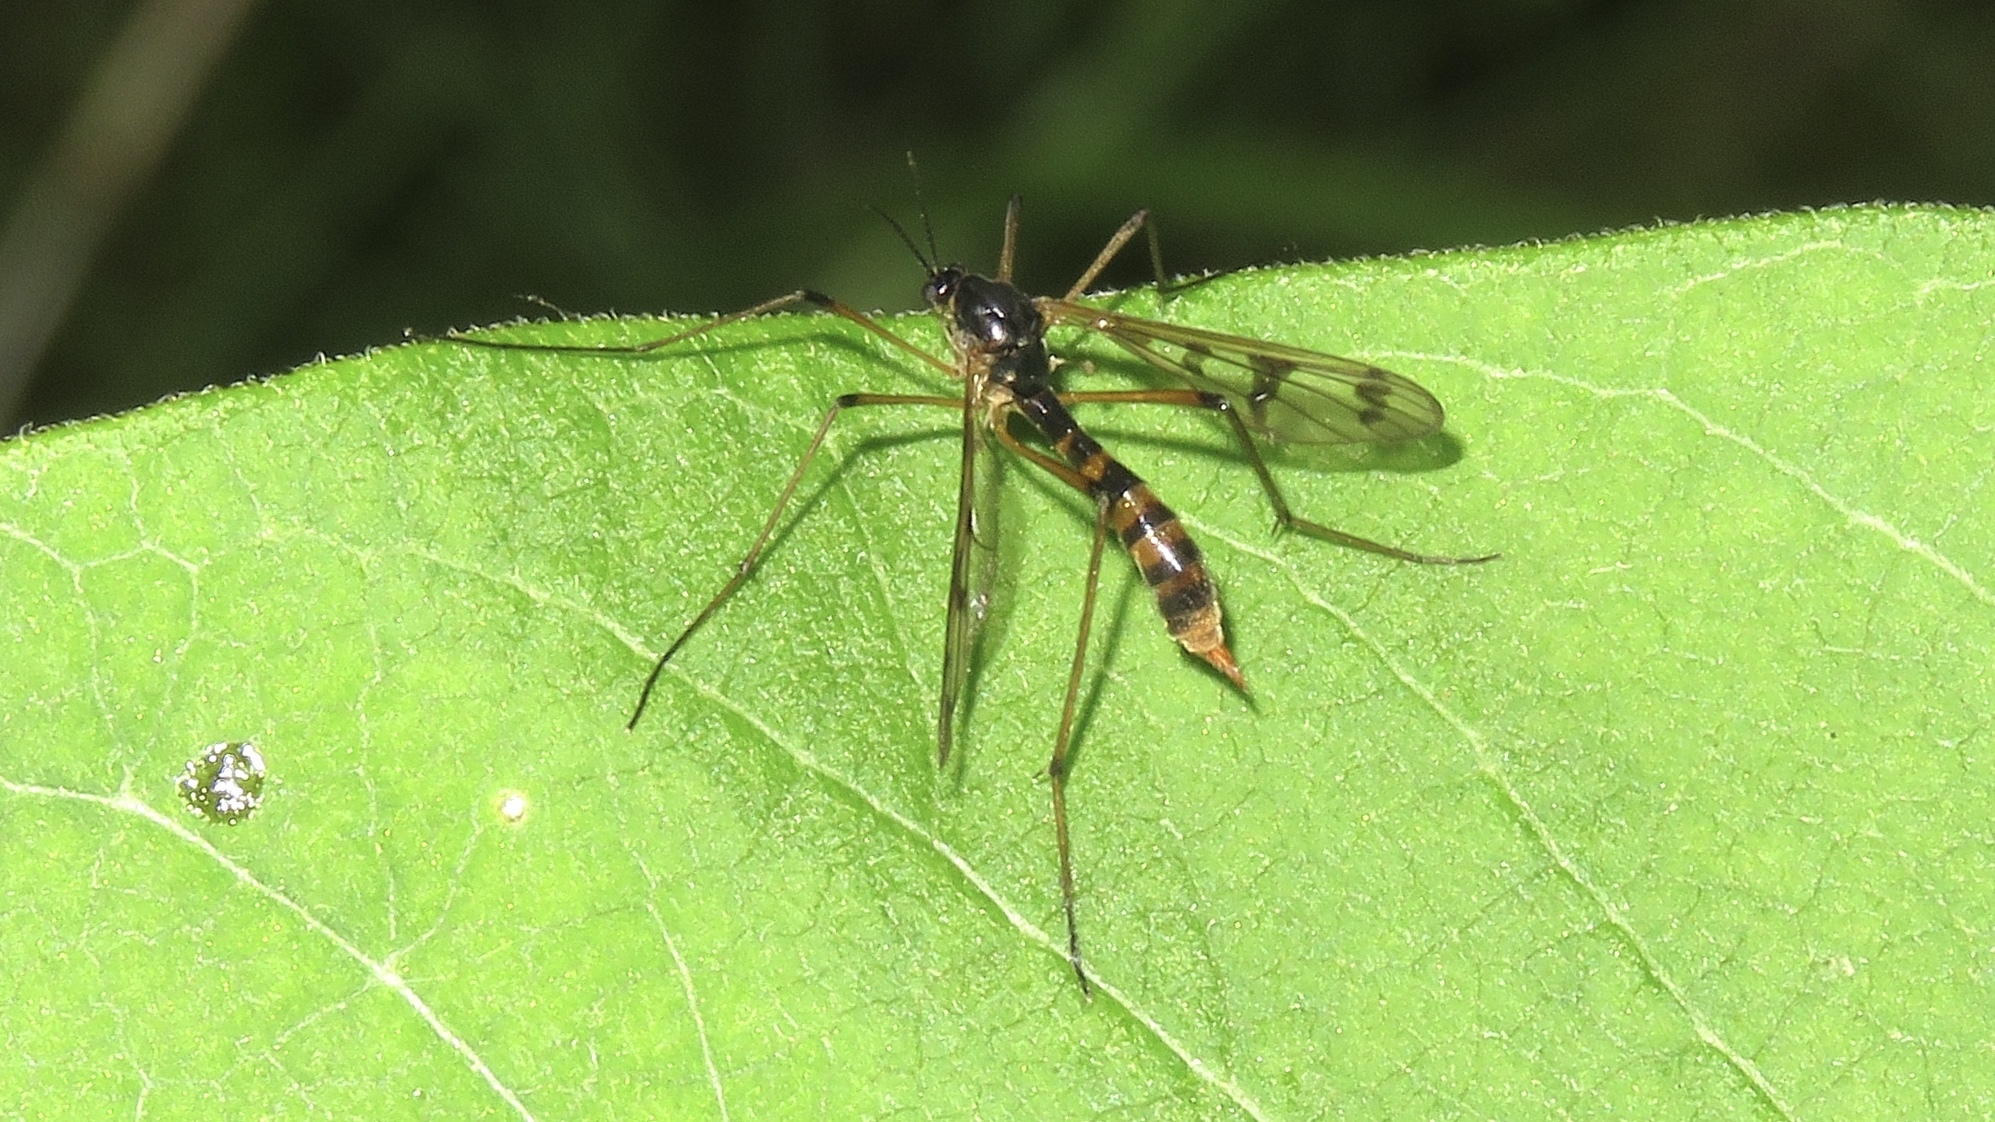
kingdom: Animalia
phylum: Arthropoda
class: Insecta
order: Diptera
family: Ptychopteridae
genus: Ptychoptera
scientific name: Ptychoptera quadrifasciata
